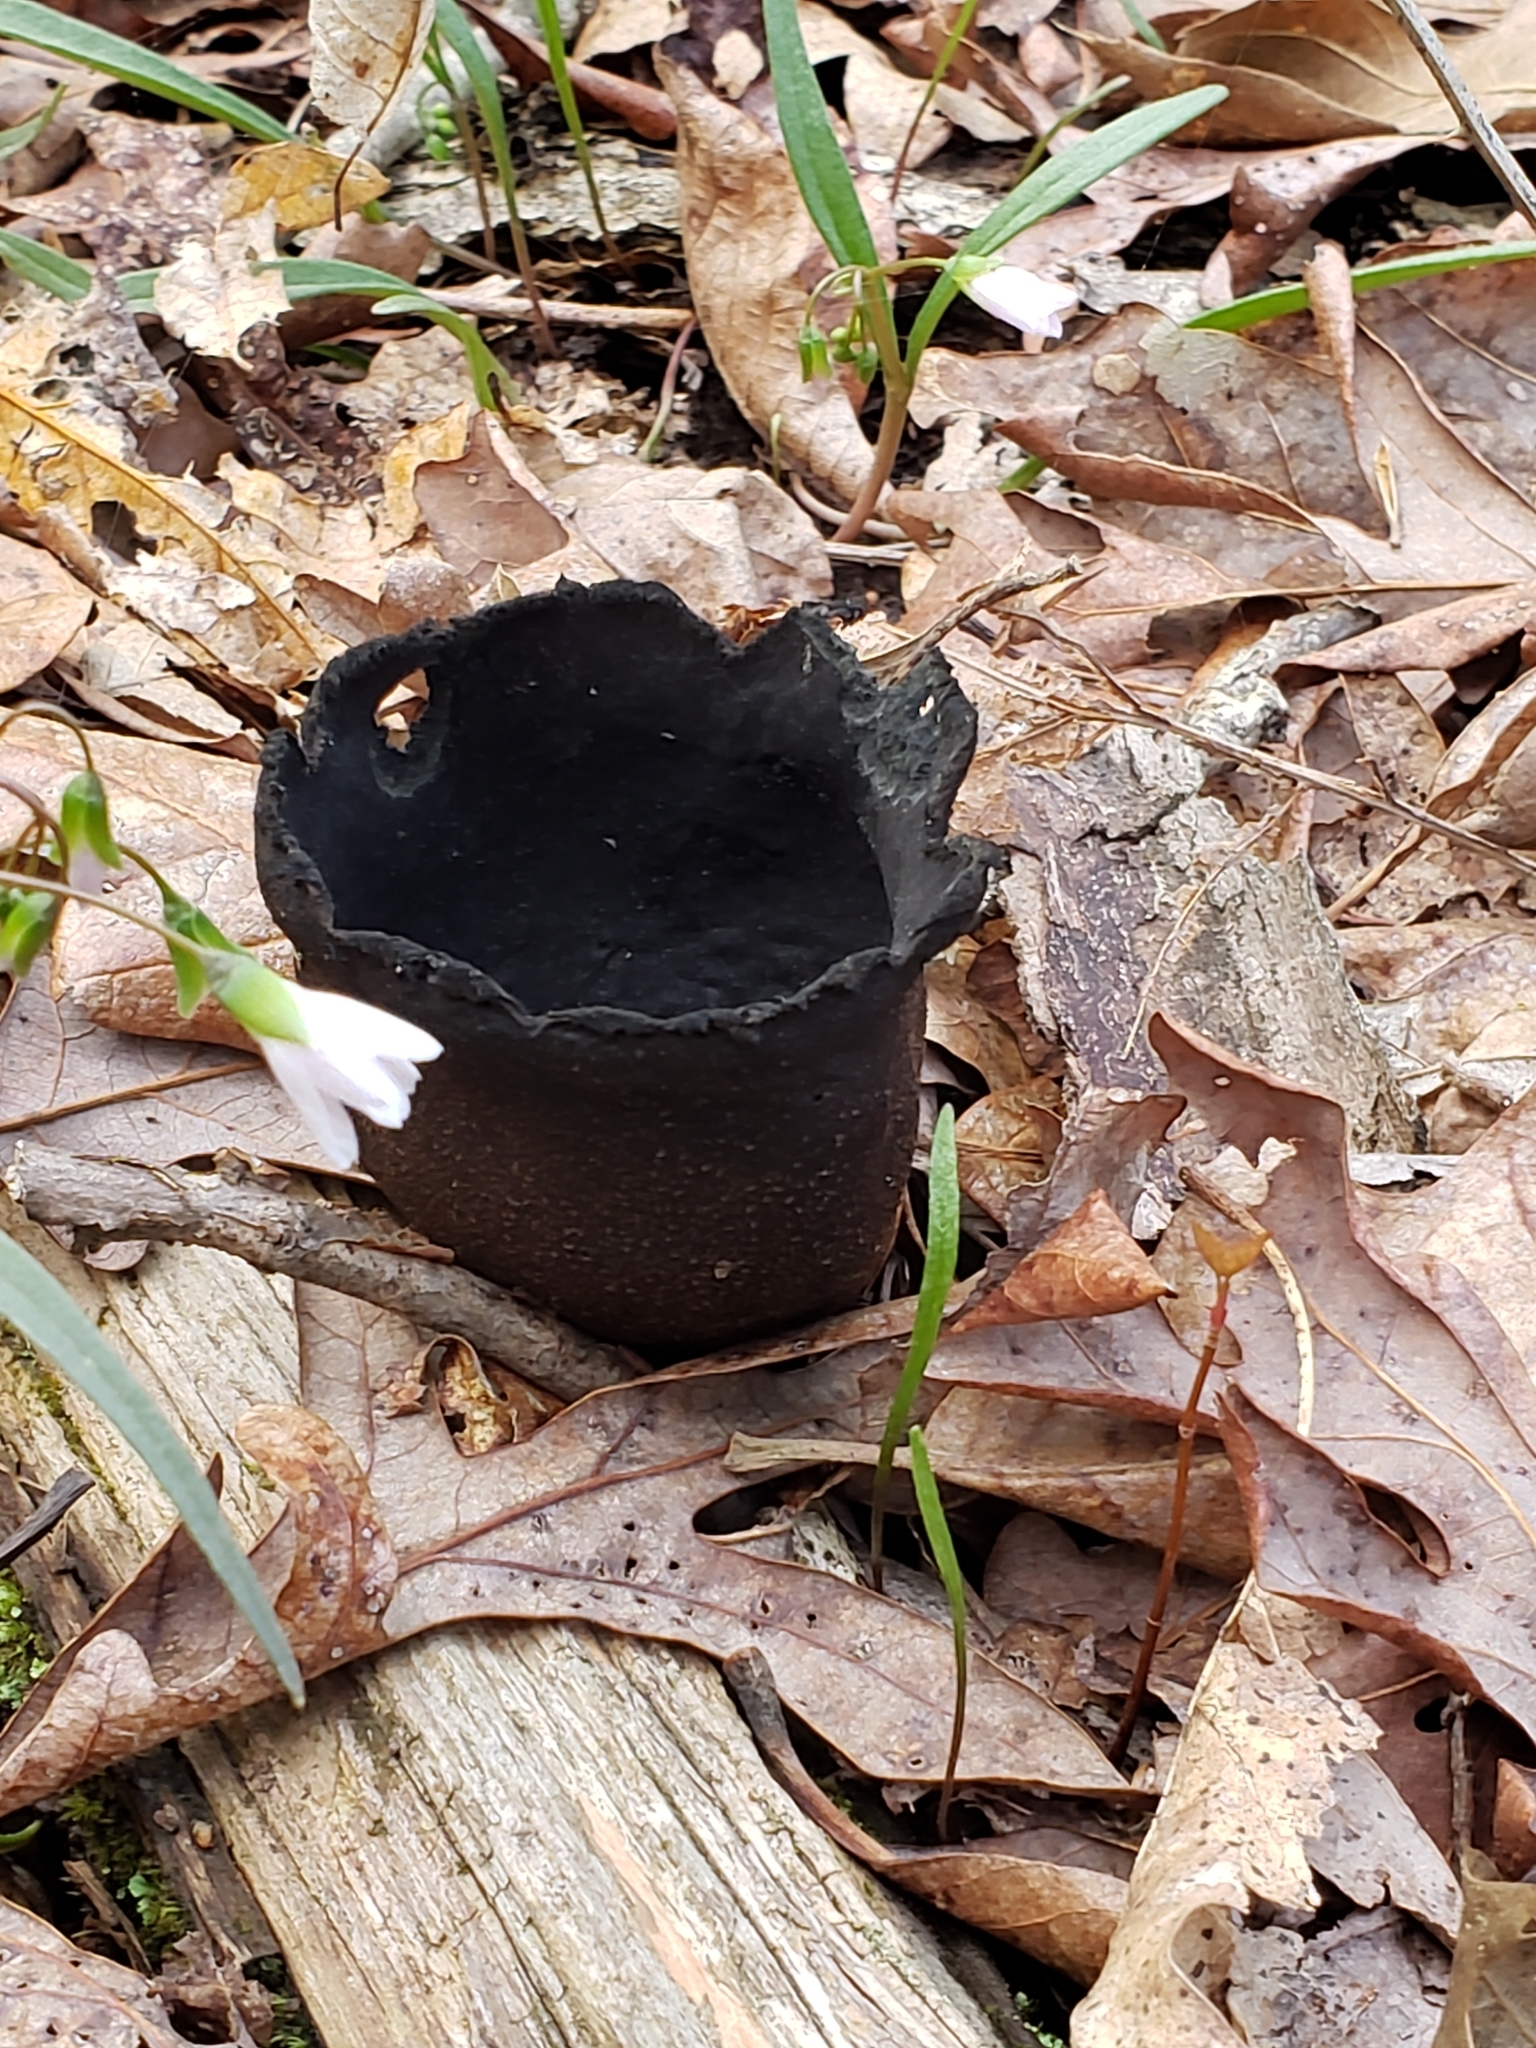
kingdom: Fungi
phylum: Ascomycota
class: Pezizomycetes
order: Pezizales
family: Sarcosomataceae
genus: Urnula
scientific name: Urnula craterium
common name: Devil's urn
